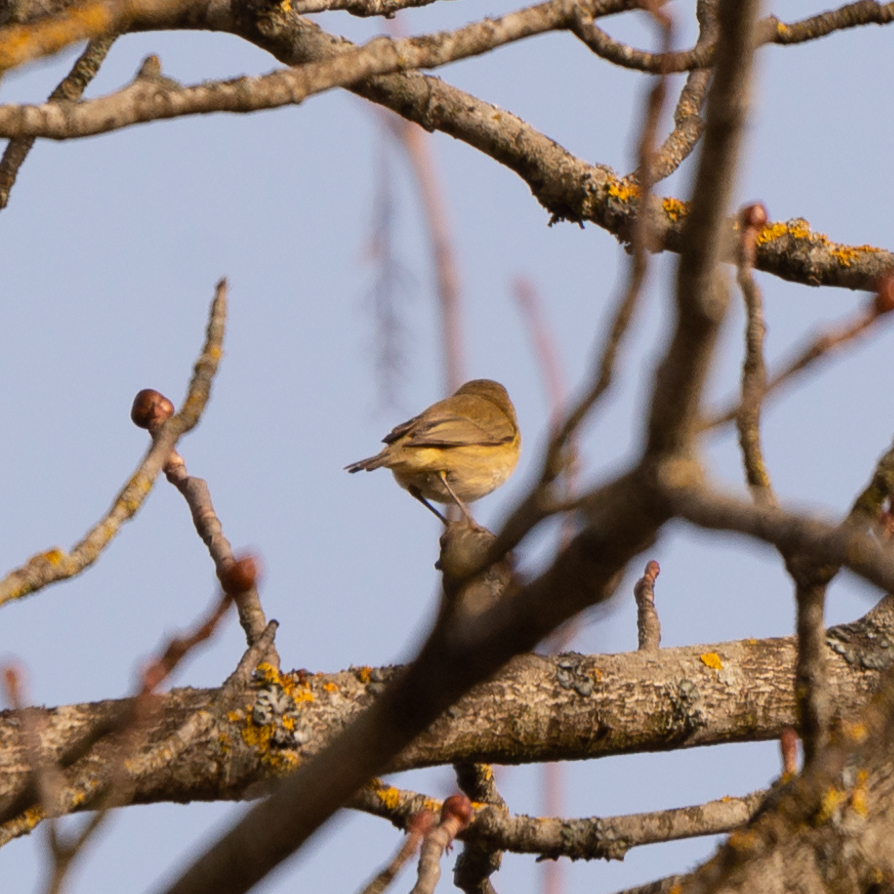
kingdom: Animalia
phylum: Chordata
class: Aves
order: Passeriformes
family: Phylloscopidae
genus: Phylloscopus
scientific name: Phylloscopus collybita
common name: Common chiffchaff
